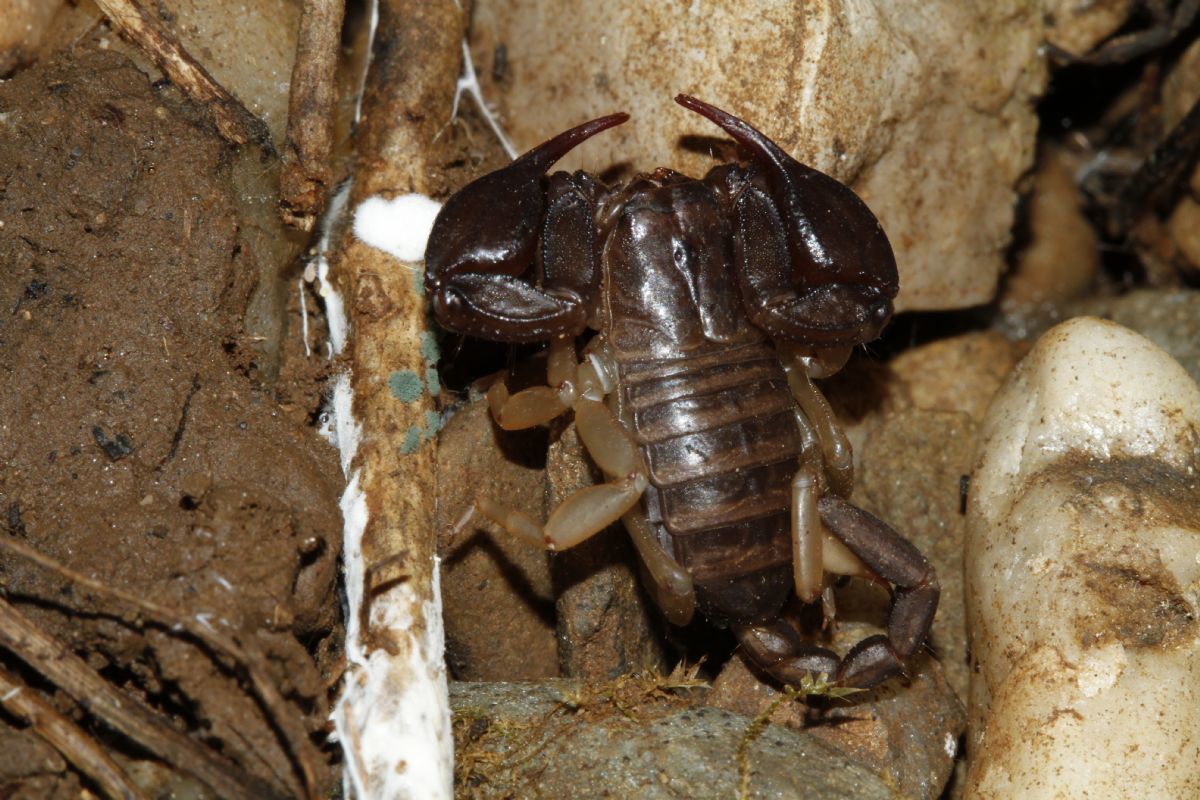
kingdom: Animalia
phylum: Arthropoda
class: Arachnida
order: Scorpiones
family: Euscorpiidae
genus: Euscorpius
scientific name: Euscorpius flavicaudis
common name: European yellow-tailed scorpion
